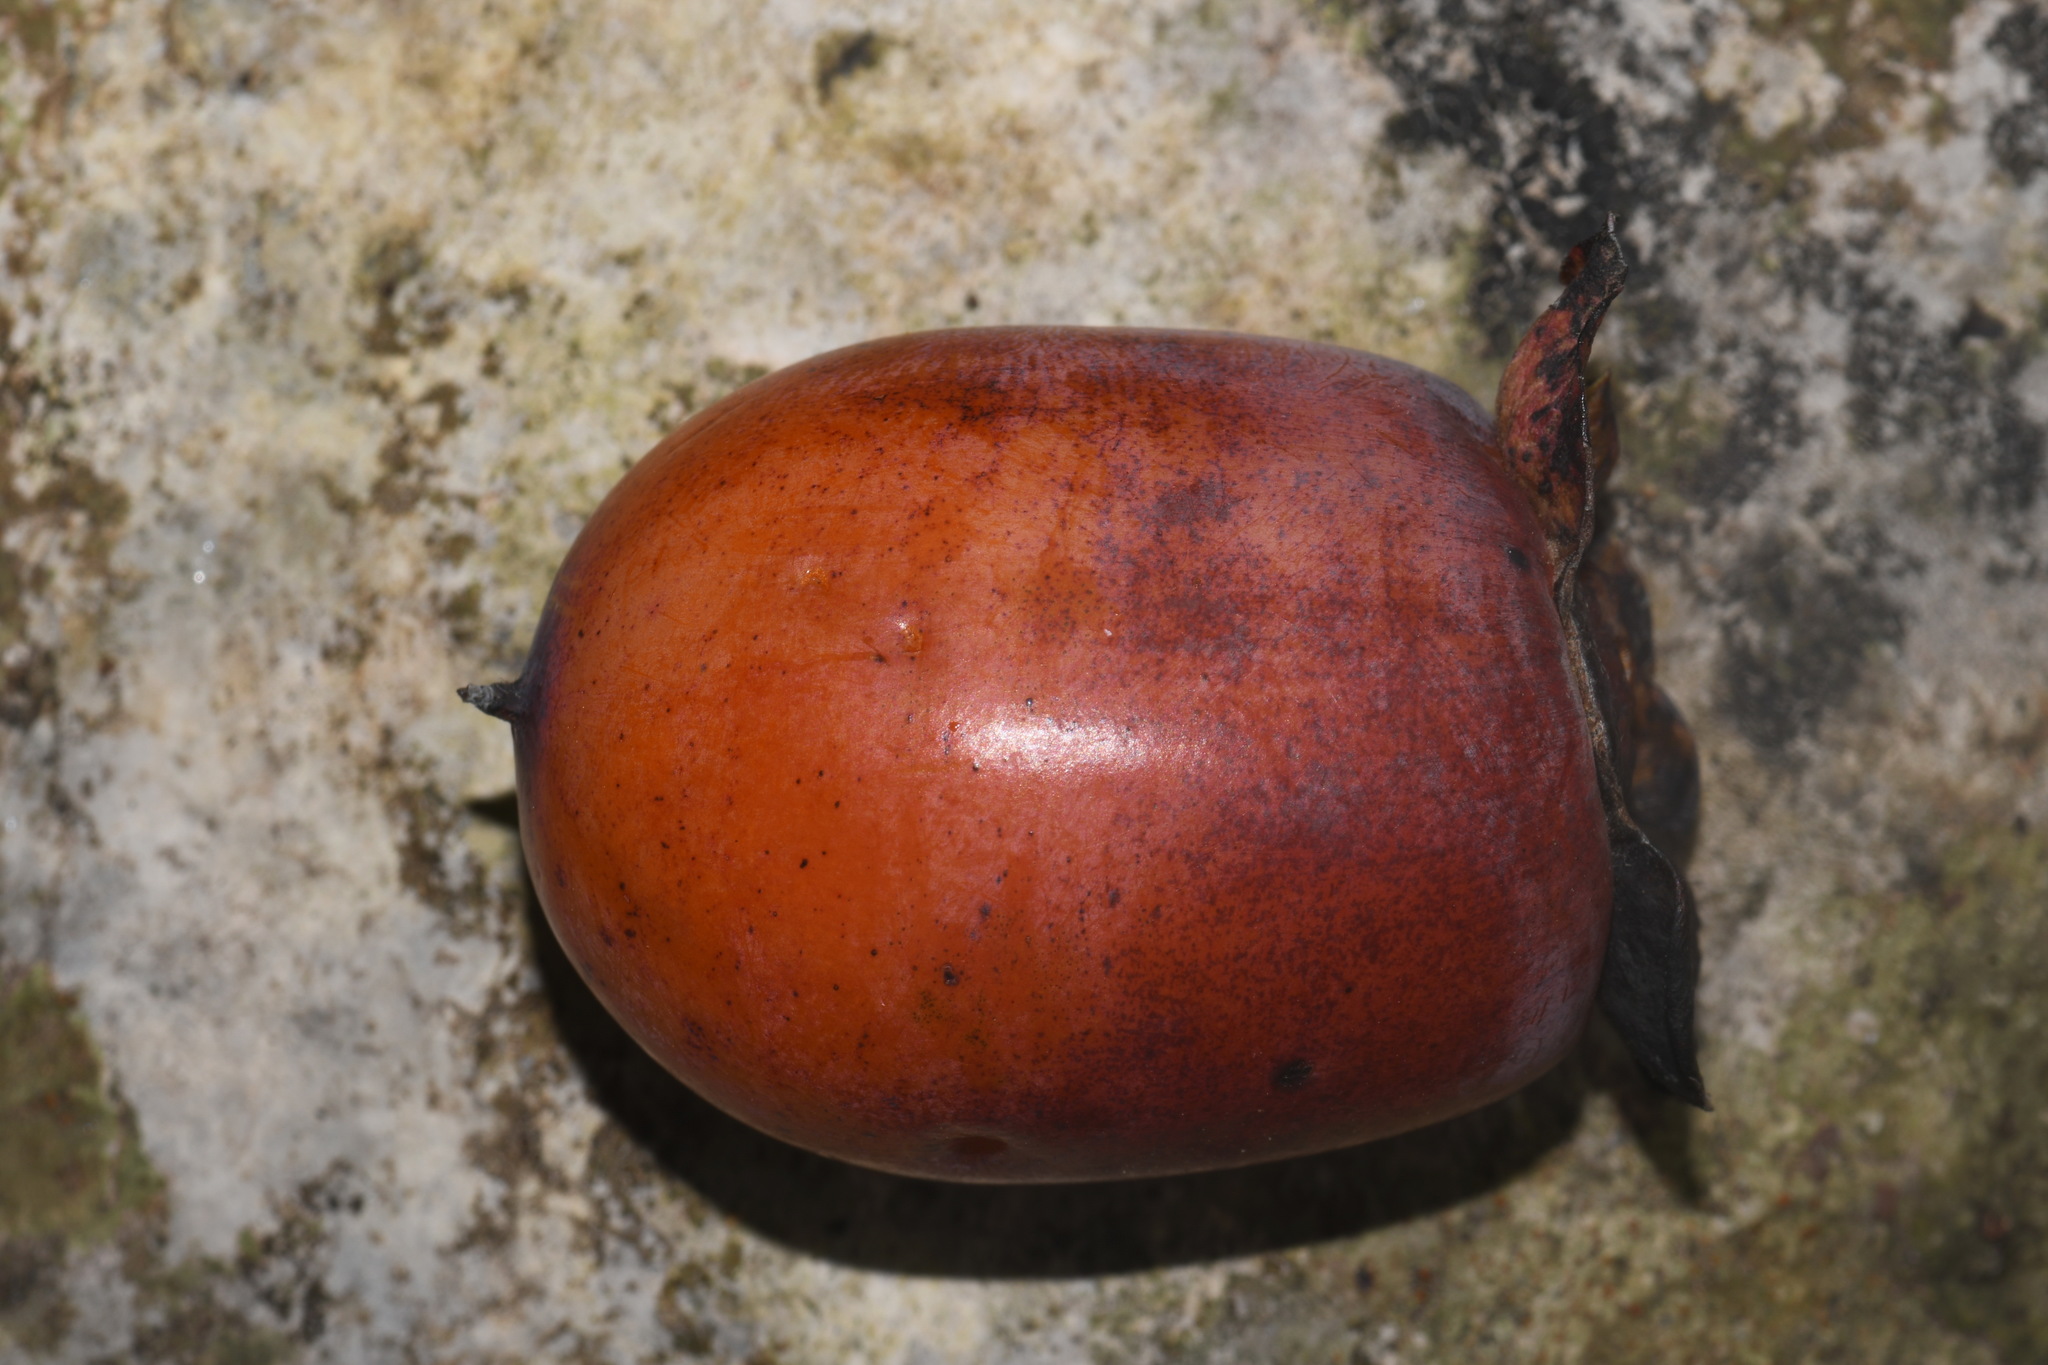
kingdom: Plantae
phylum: Tracheophyta
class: Magnoliopsida
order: Ericales
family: Ebenaceae
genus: Diospyros
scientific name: Diospyros virginiana
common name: Persimmon
